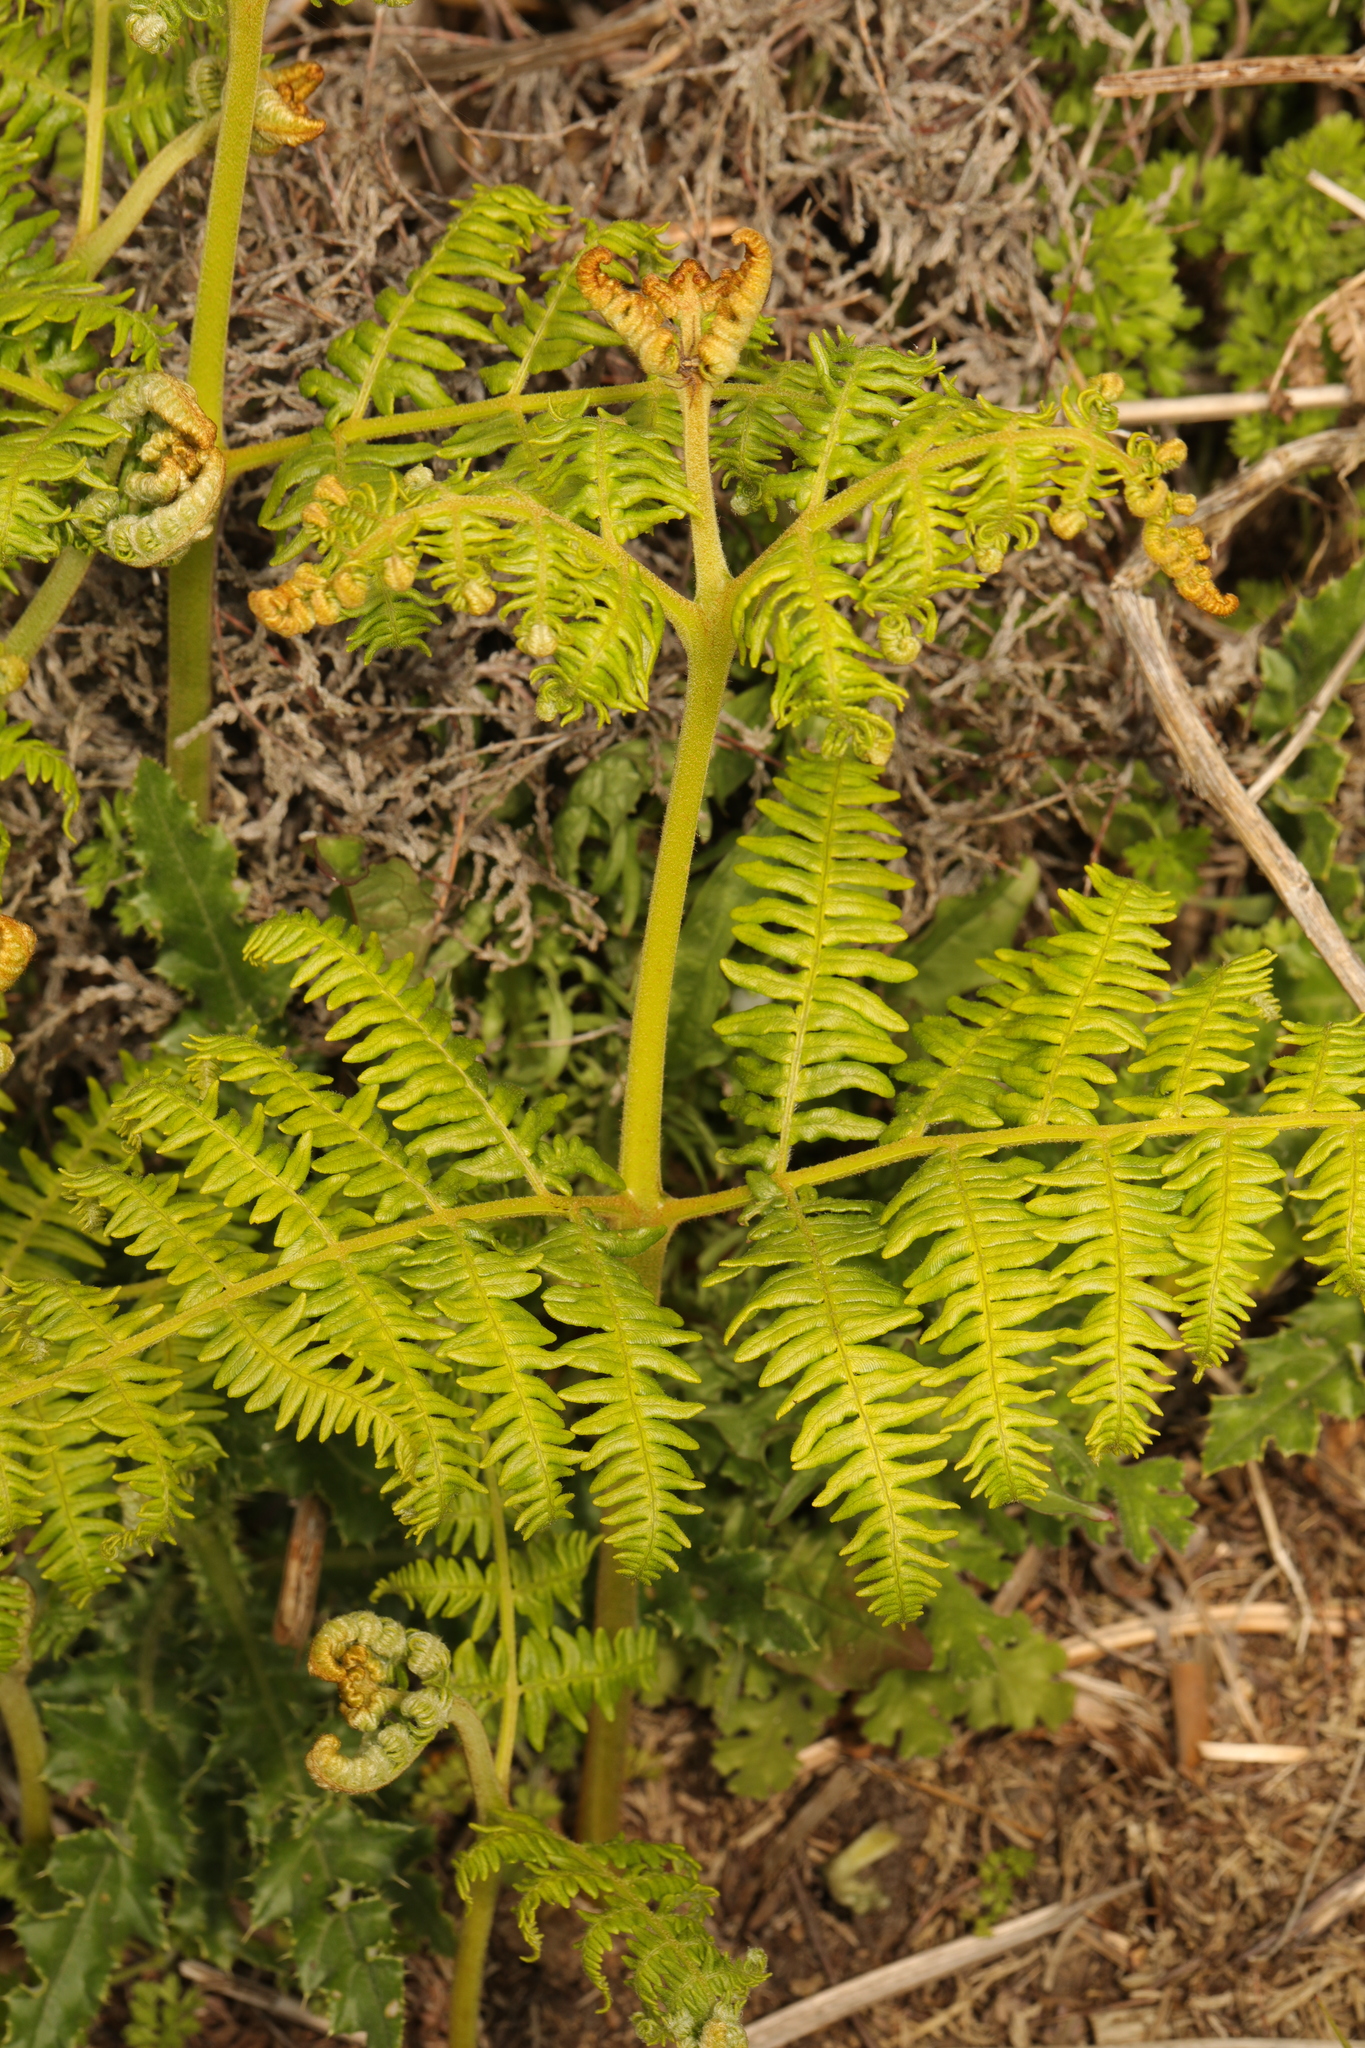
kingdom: Plantae
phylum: Tracheophyta
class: Polypodiopsida
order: Polypodiales
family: Dennstaedtiaceae
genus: Pteridium
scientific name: Pteridium aquilinum
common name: Bracken
